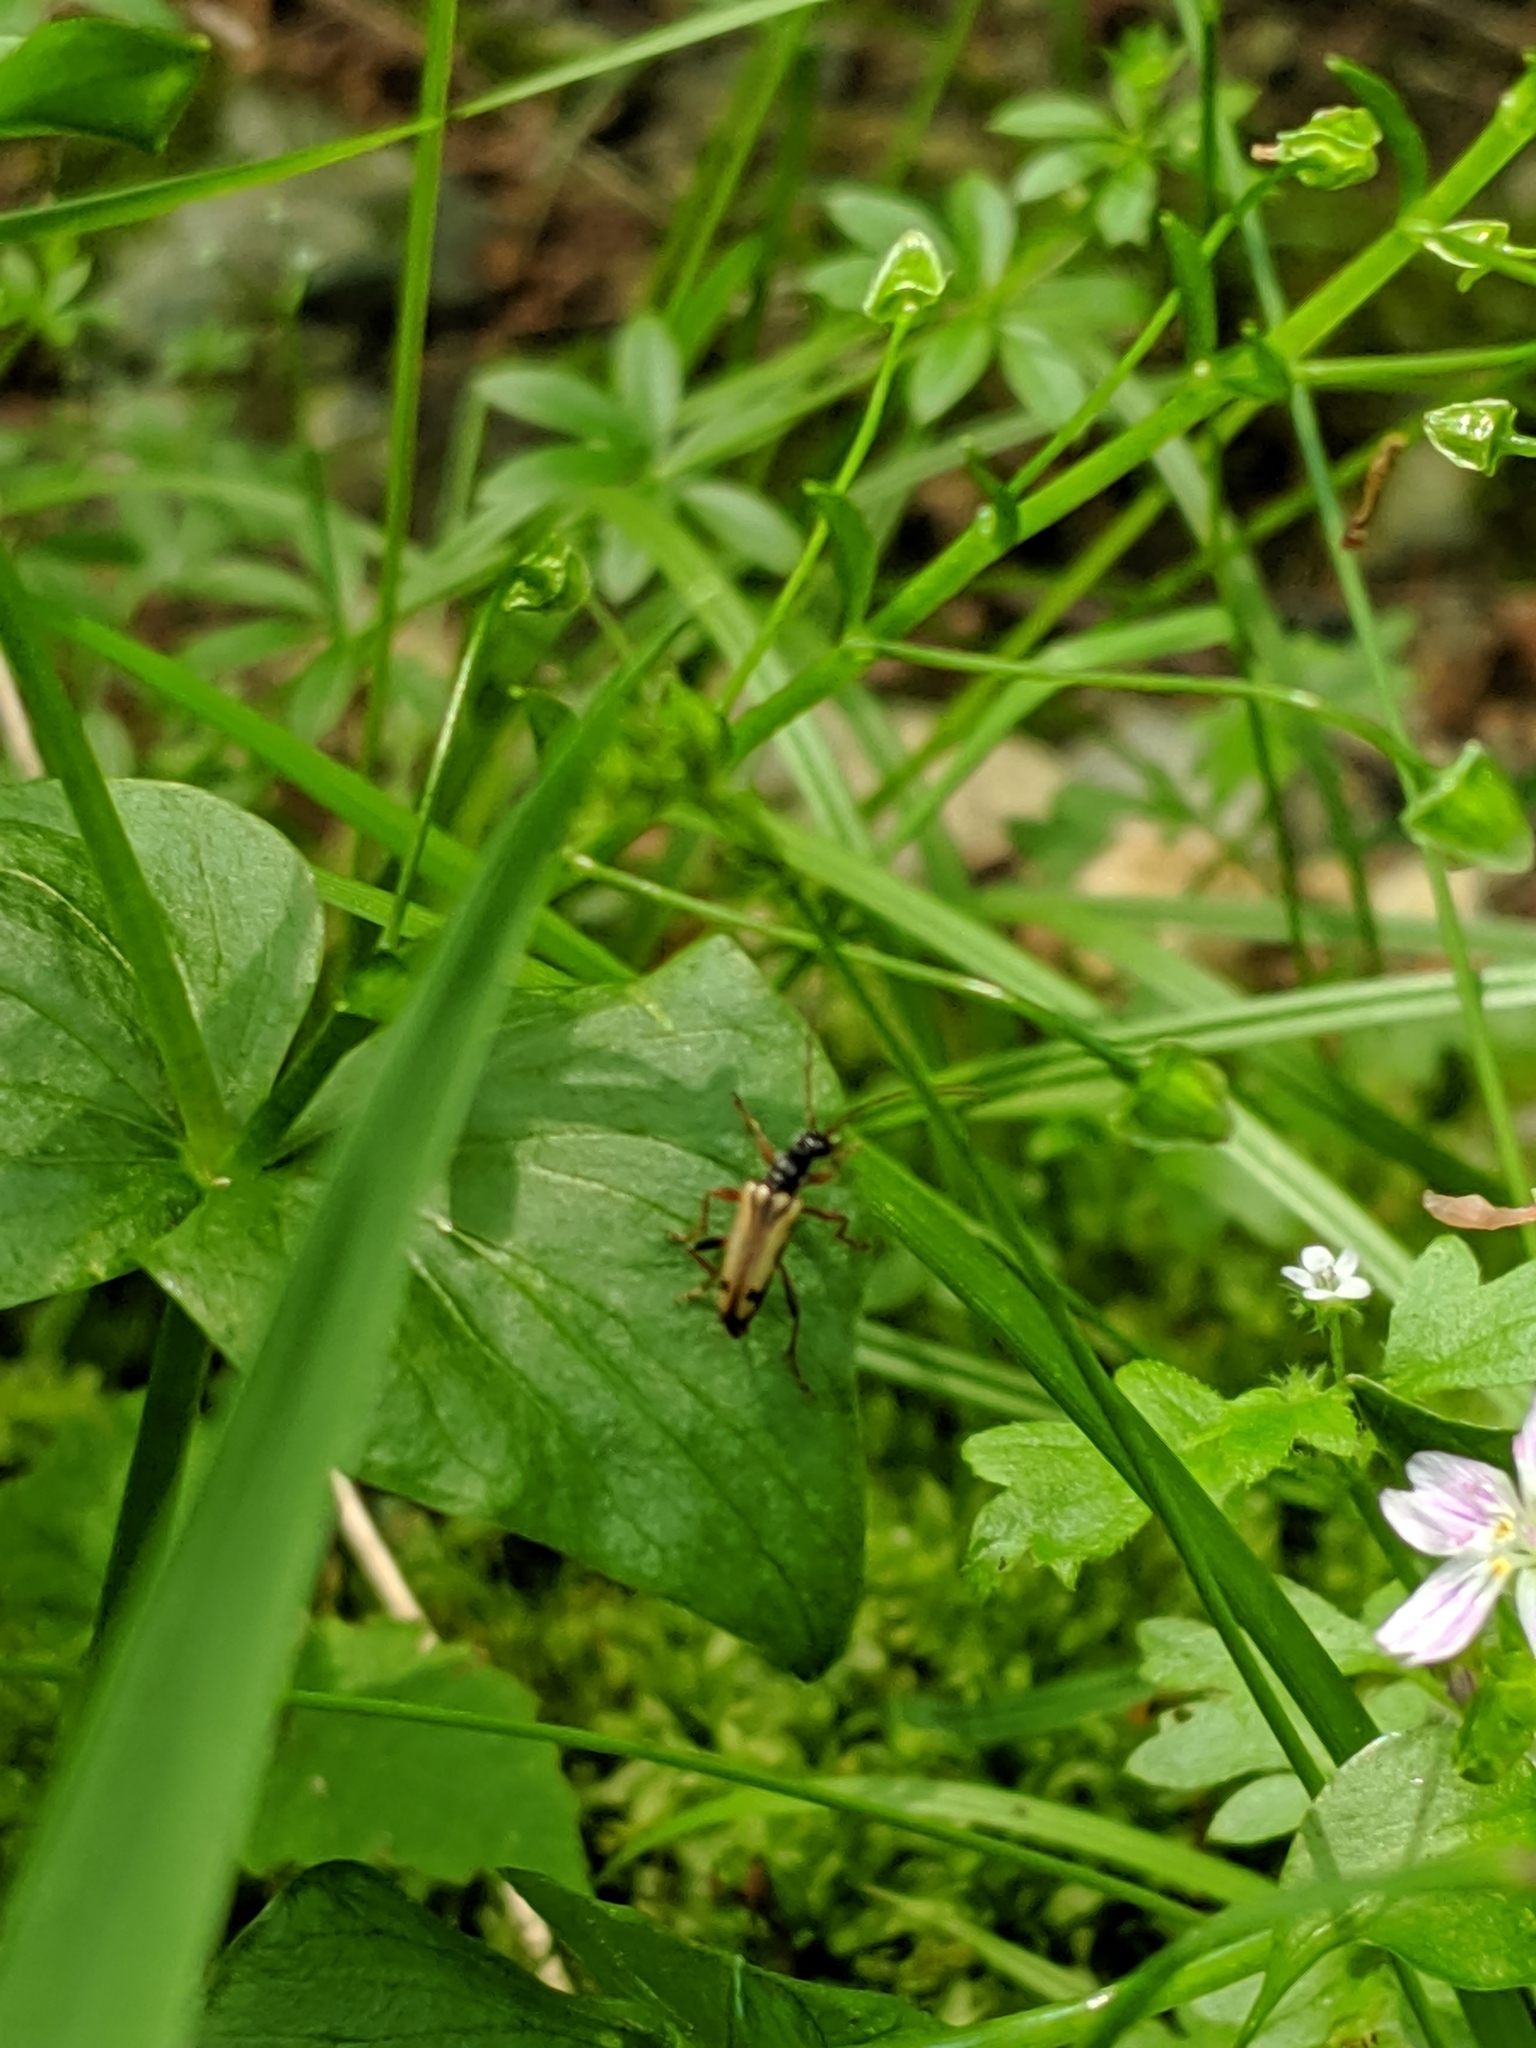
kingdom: Animalia
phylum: Arthropoda
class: Insecta
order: Coleoptera
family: Cerambycidae
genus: Pidonia
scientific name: Pidonia scripta
